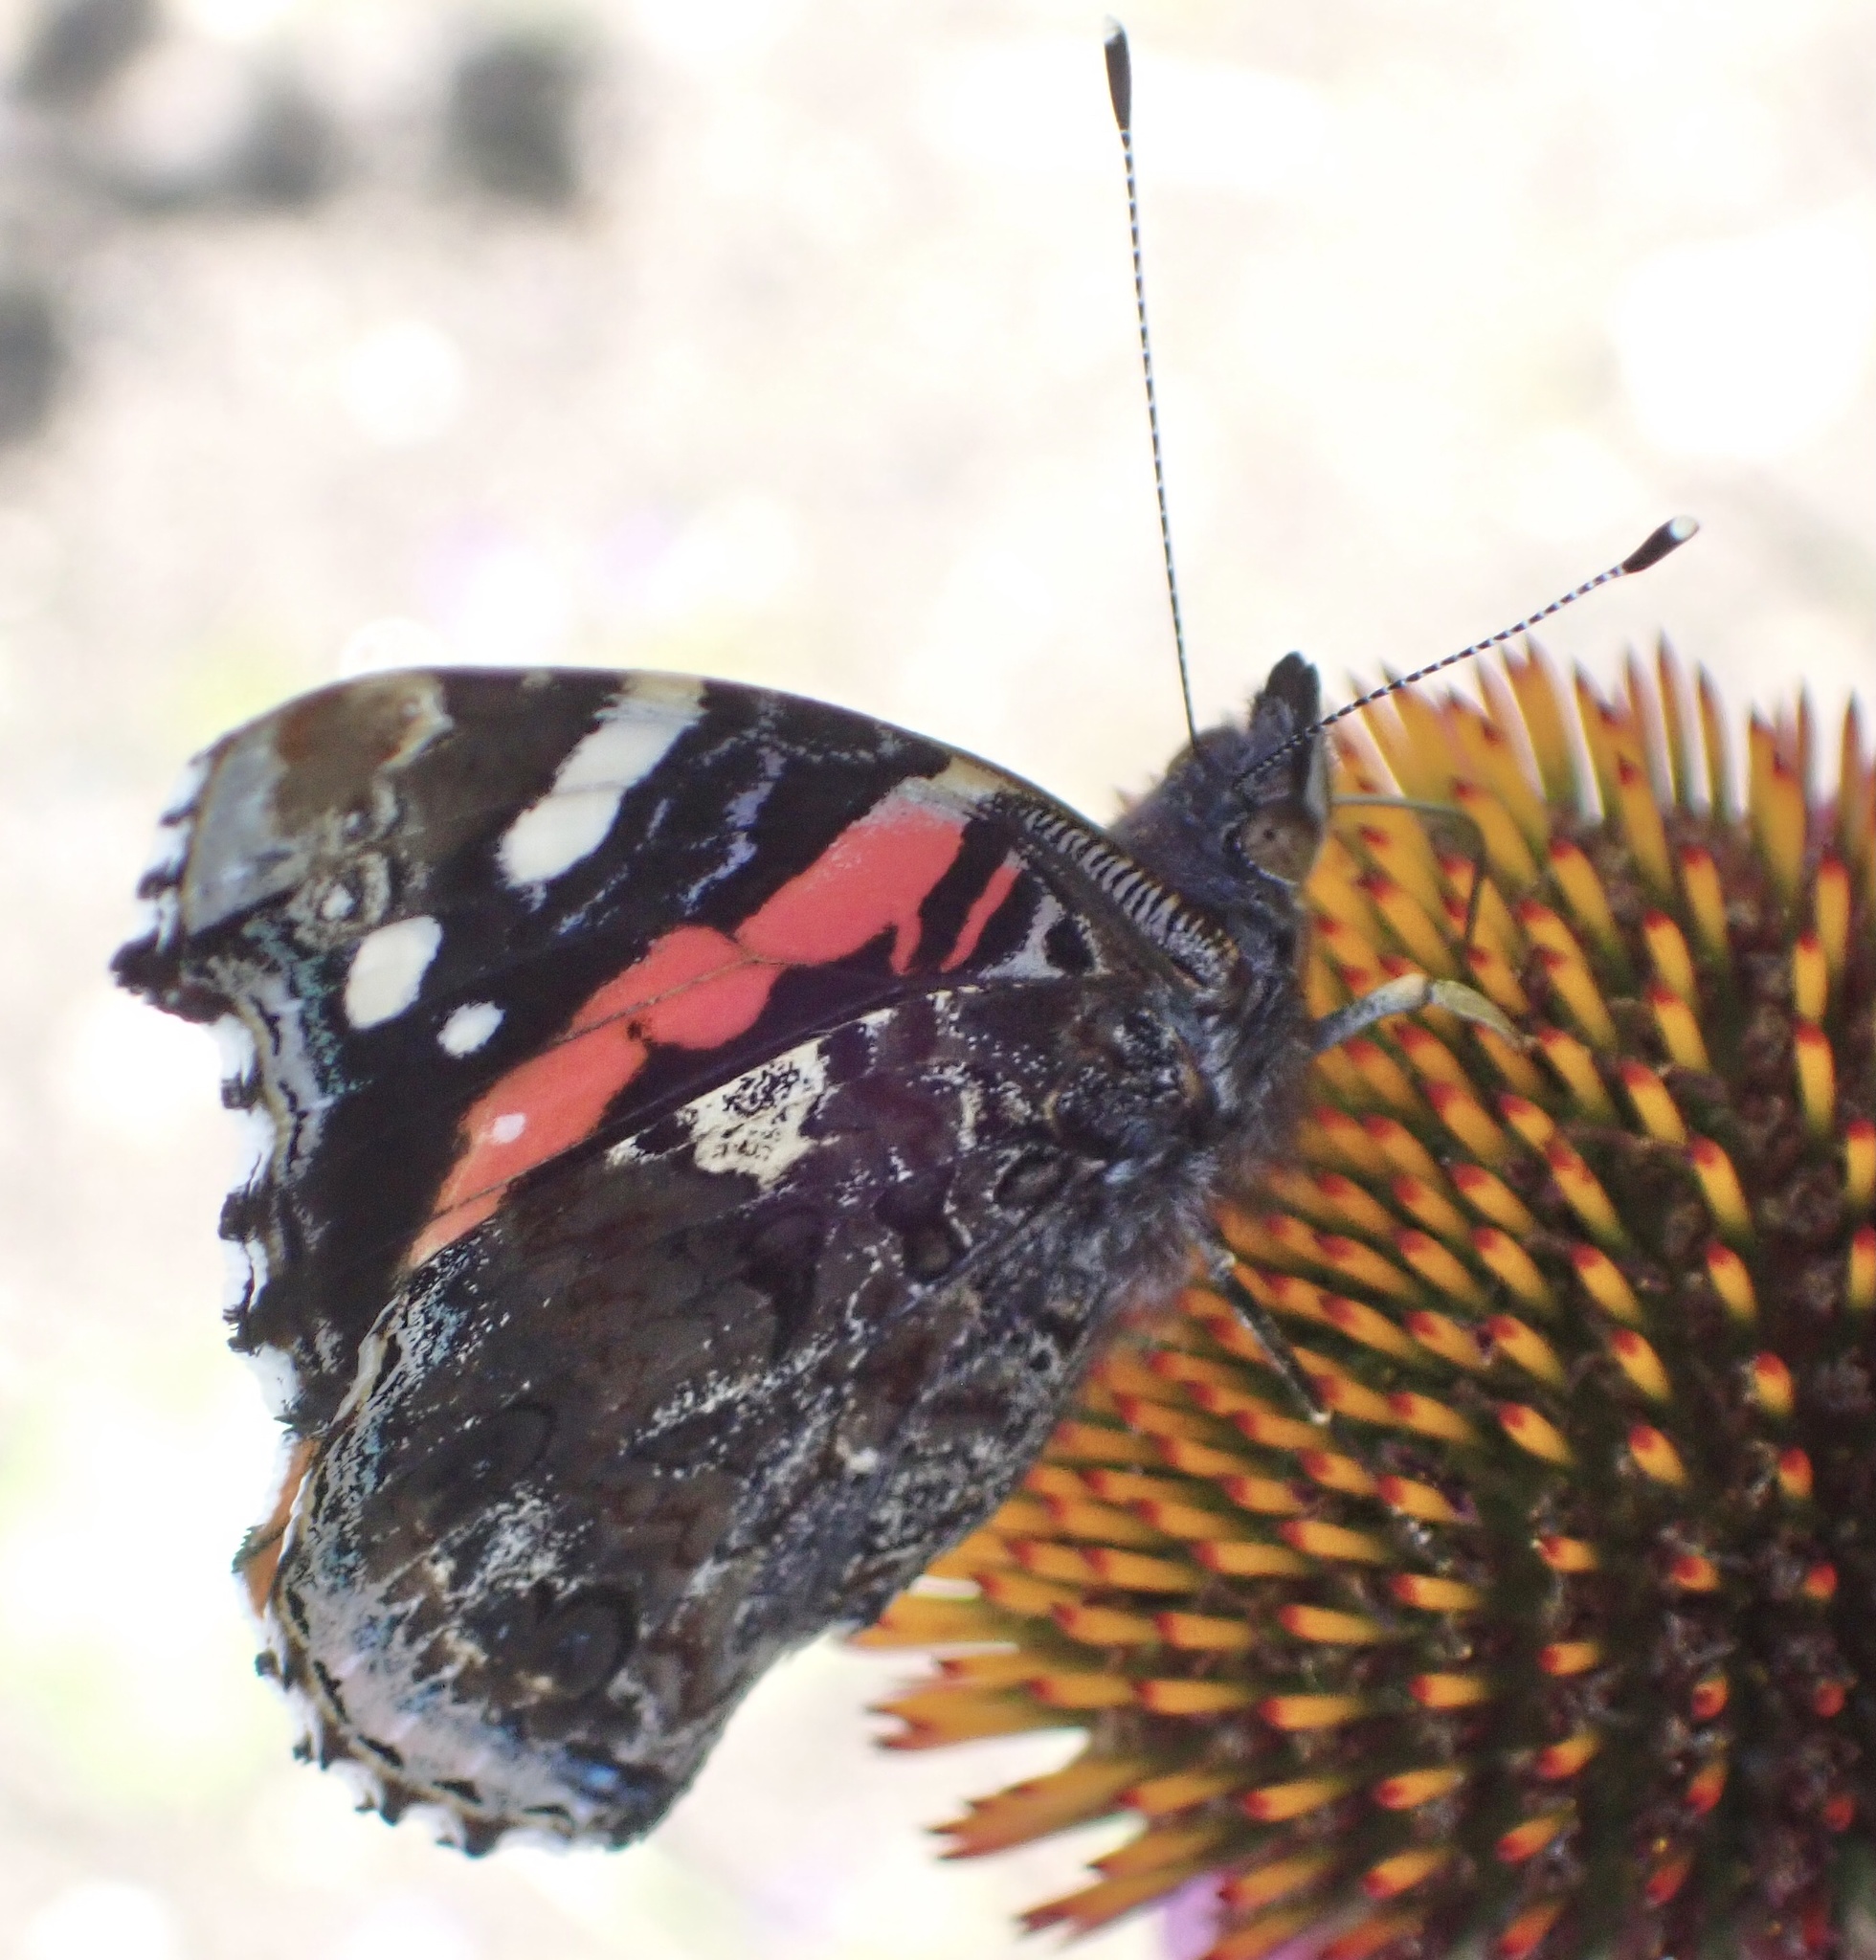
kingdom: Animalia
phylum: Arthropoda
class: Insecta
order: Lepidoptera
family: Nymphalidae
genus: Vanessa
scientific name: Vanessa atalanta
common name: Red admiral
